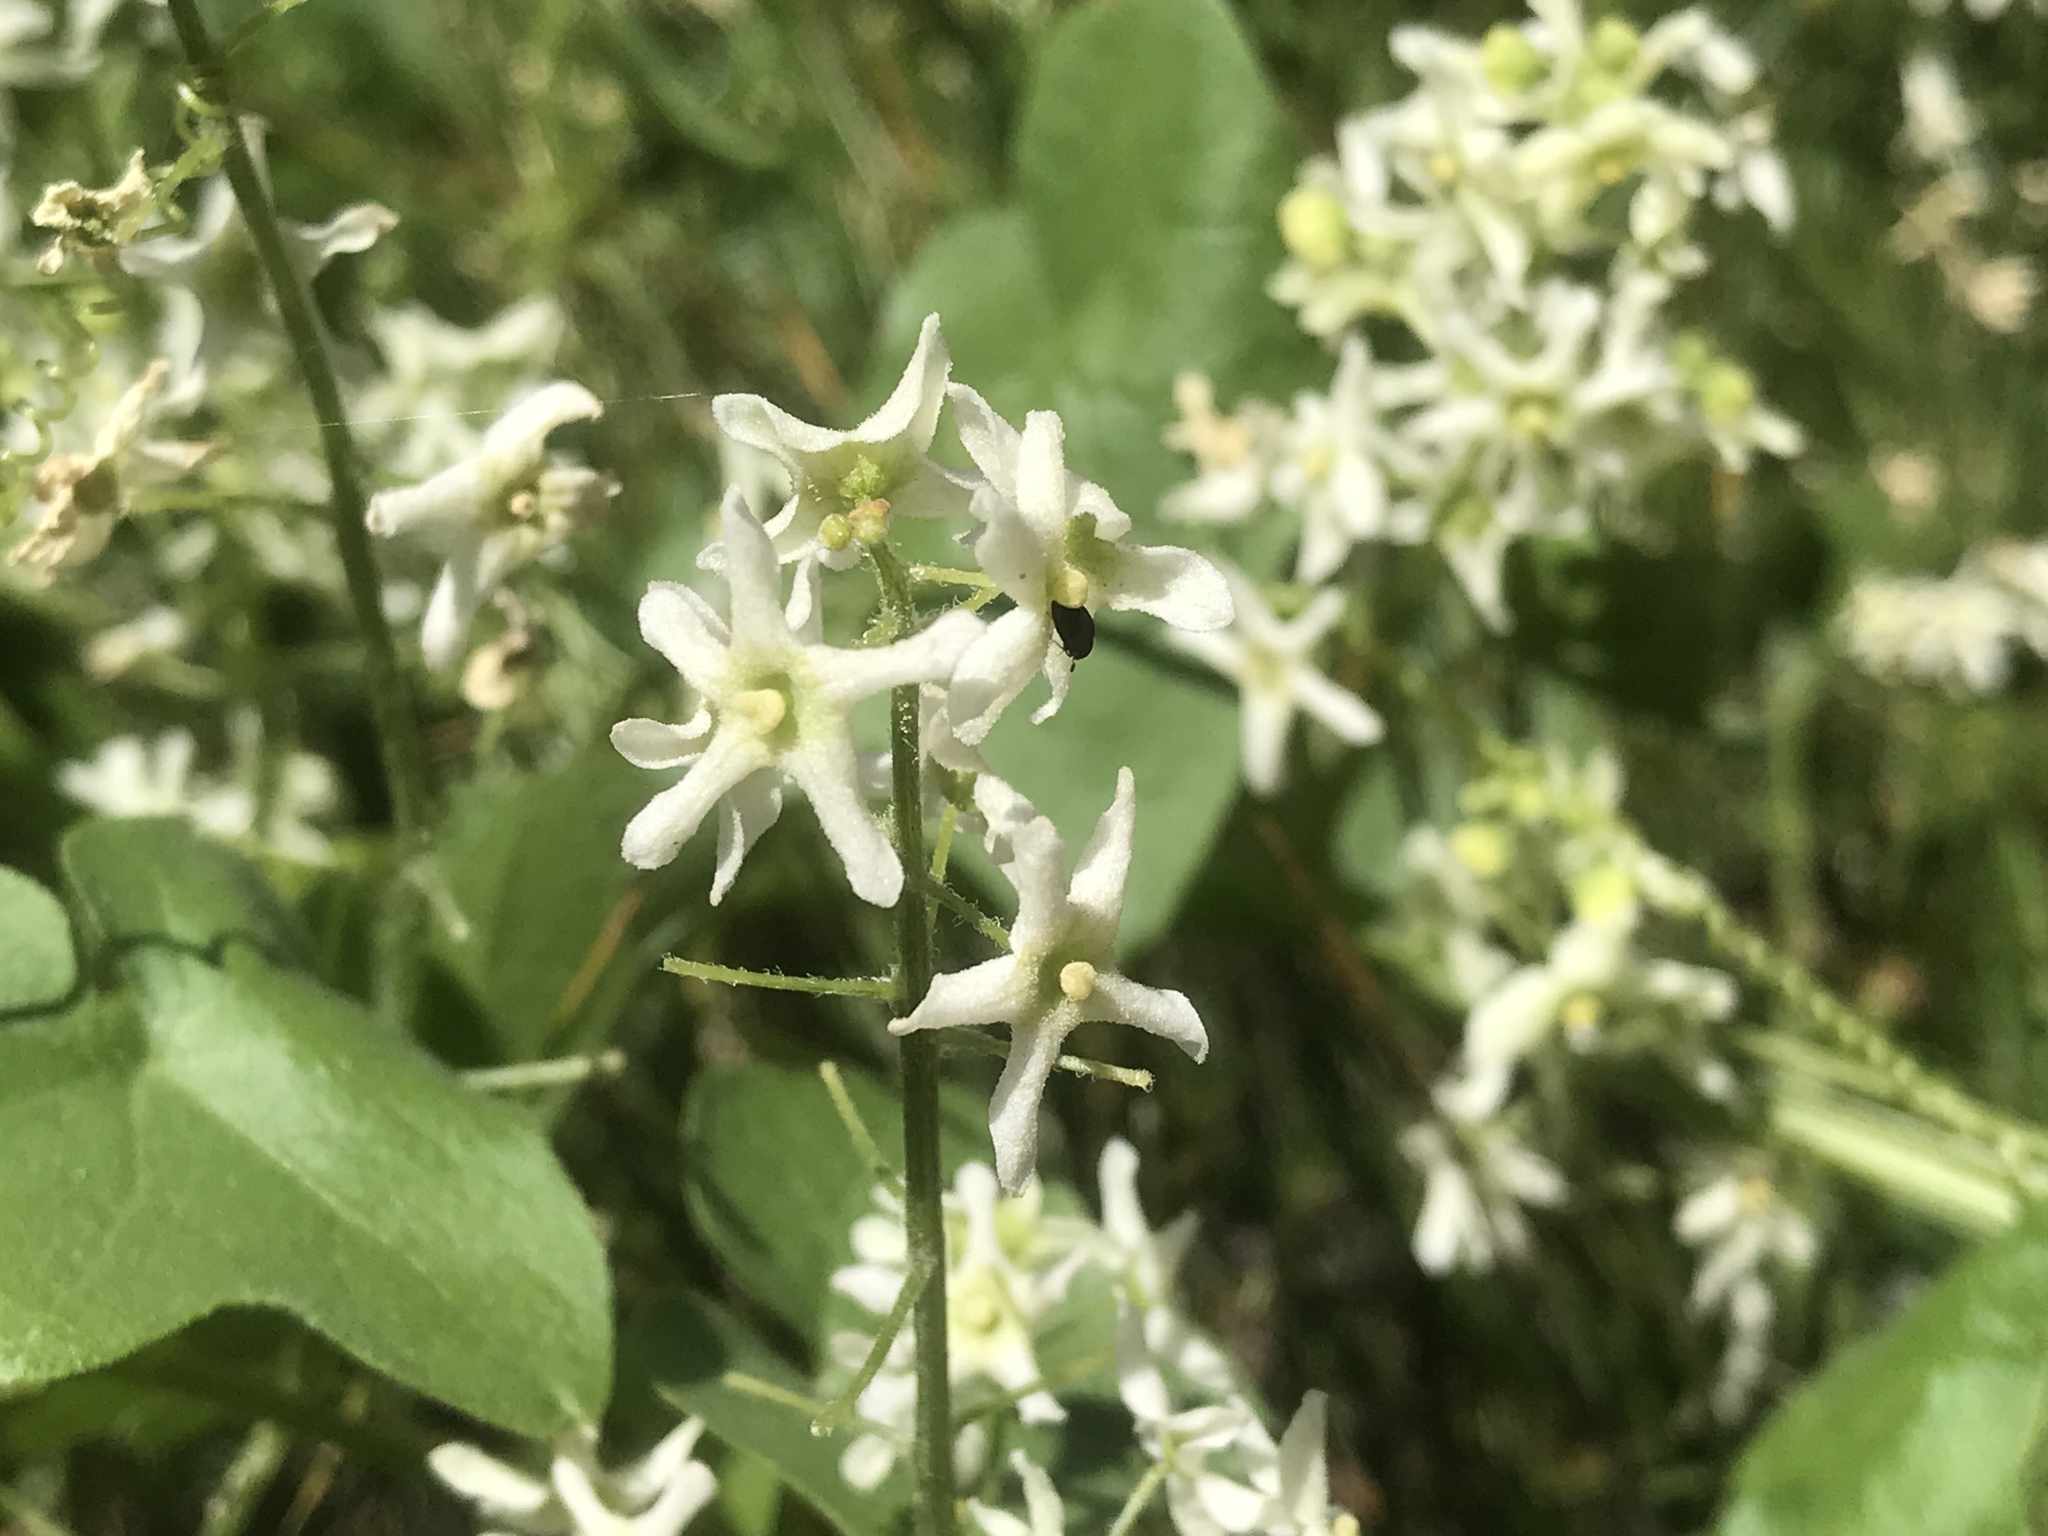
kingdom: Plantae
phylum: Tracheophyta
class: Magnoliopsida
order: Cucurbitales
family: Cucurbitaceae
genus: Marah
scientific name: Marah fabacea
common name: California manroot
